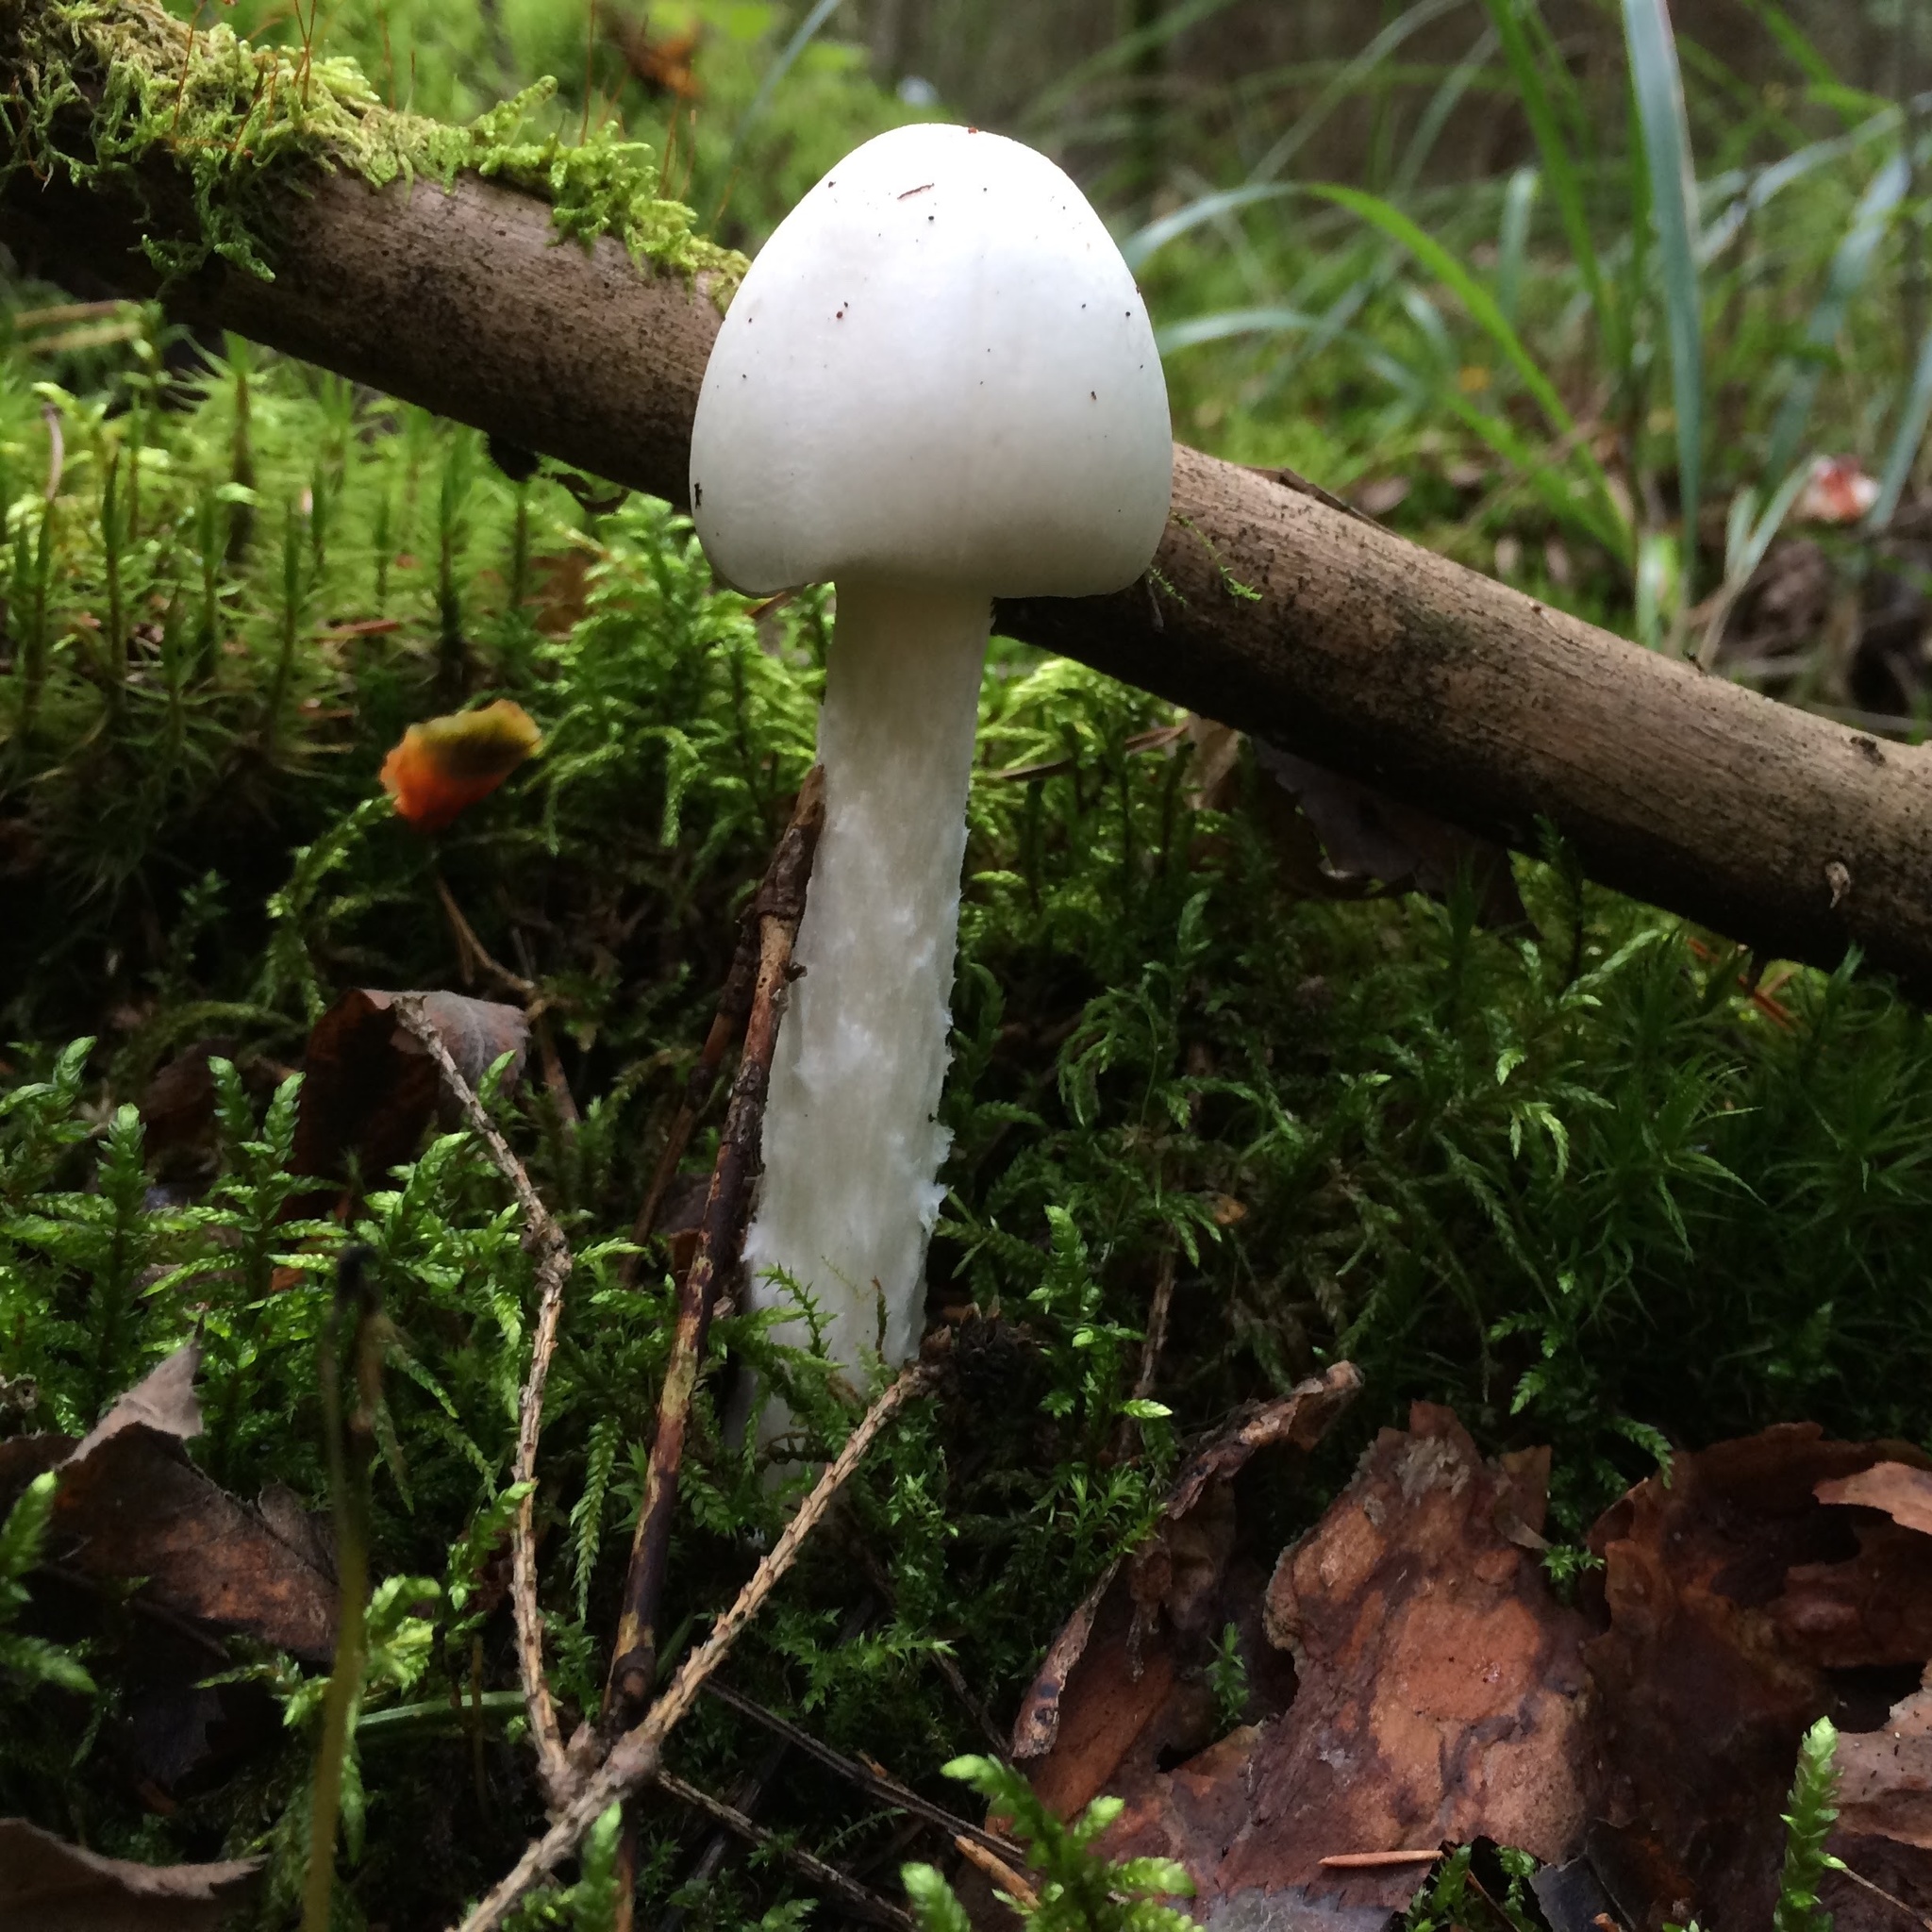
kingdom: Fungi
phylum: Basidiomycota
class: Agaricomycetes
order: Agaricales
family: Amanitaceae
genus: Amanita
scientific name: Amanita virosa
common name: Destroying angel
